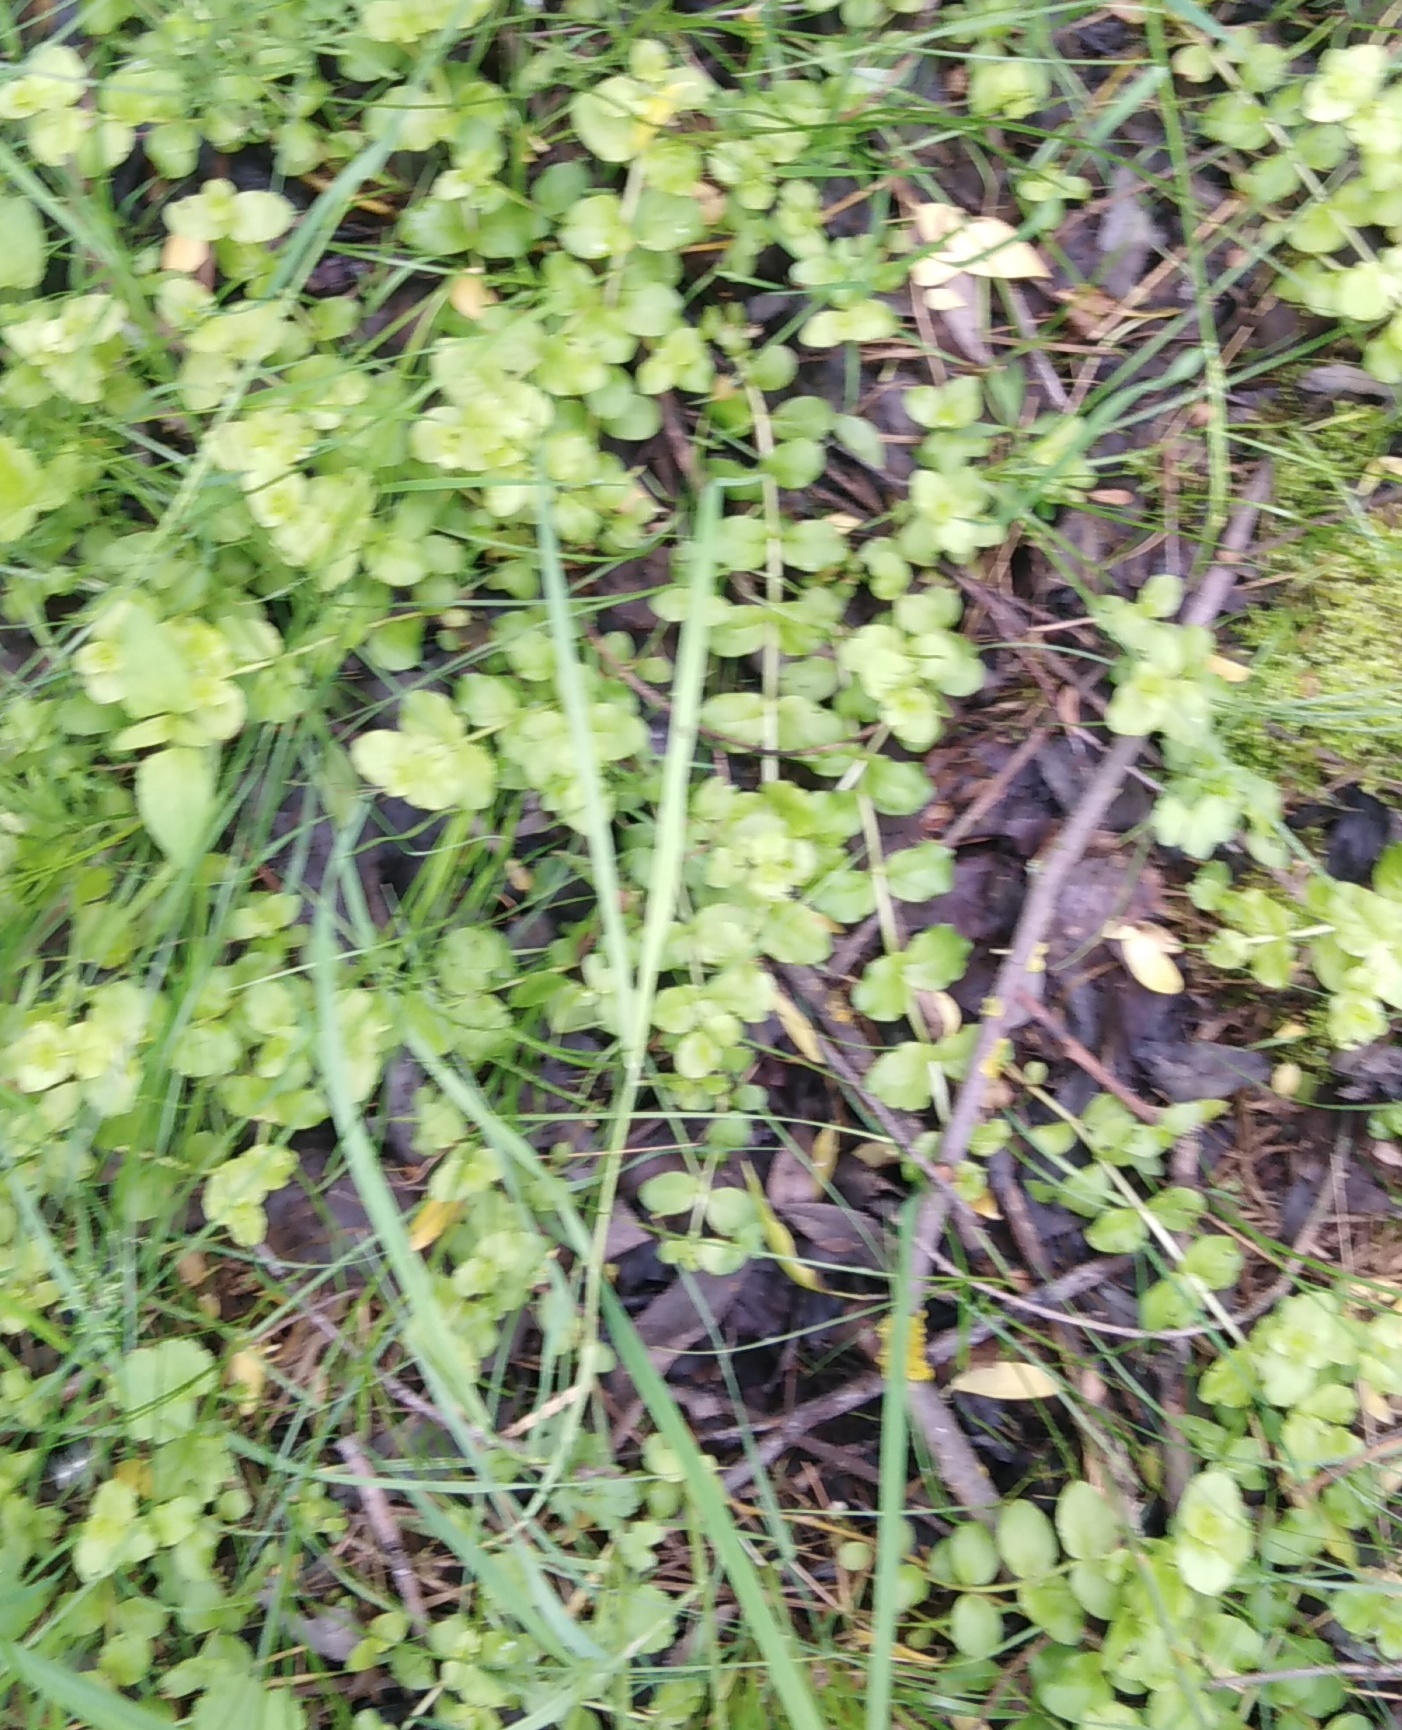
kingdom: Plantae
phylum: Tracheophyta
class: Magnoliopsida
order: Ericales
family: Primulaceae
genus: Lysimachia
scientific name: Lysimachia nummularia
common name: Moneywort
